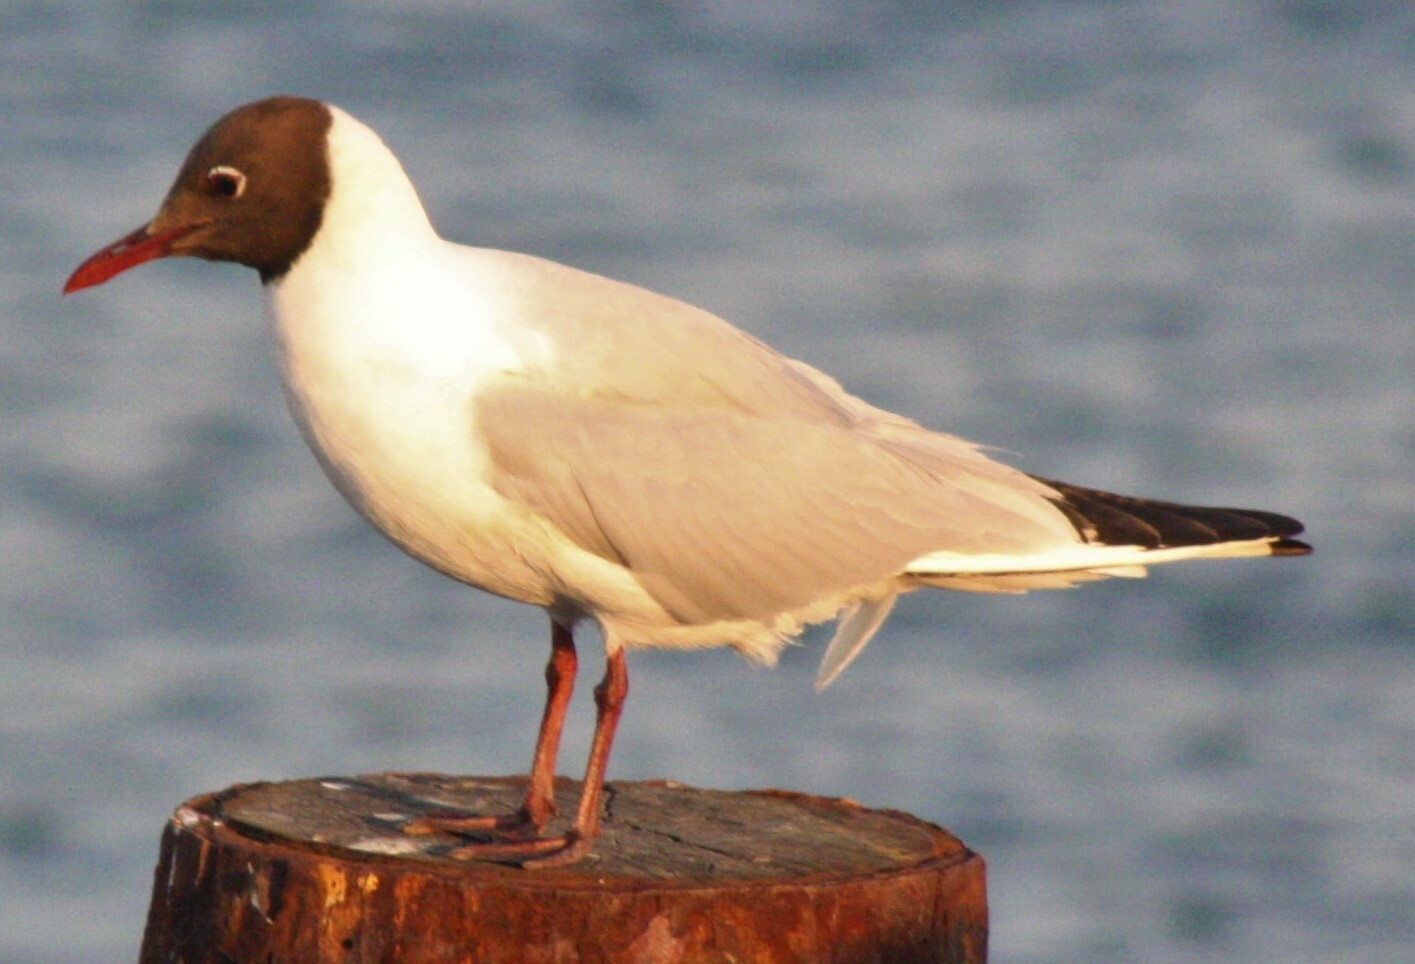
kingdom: Animalia
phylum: Chordata
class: Aves
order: Charadriiformes
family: Laridae
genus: Chroicocephalus
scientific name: Chroicocephalus ridibundus
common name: Black-headed gull
